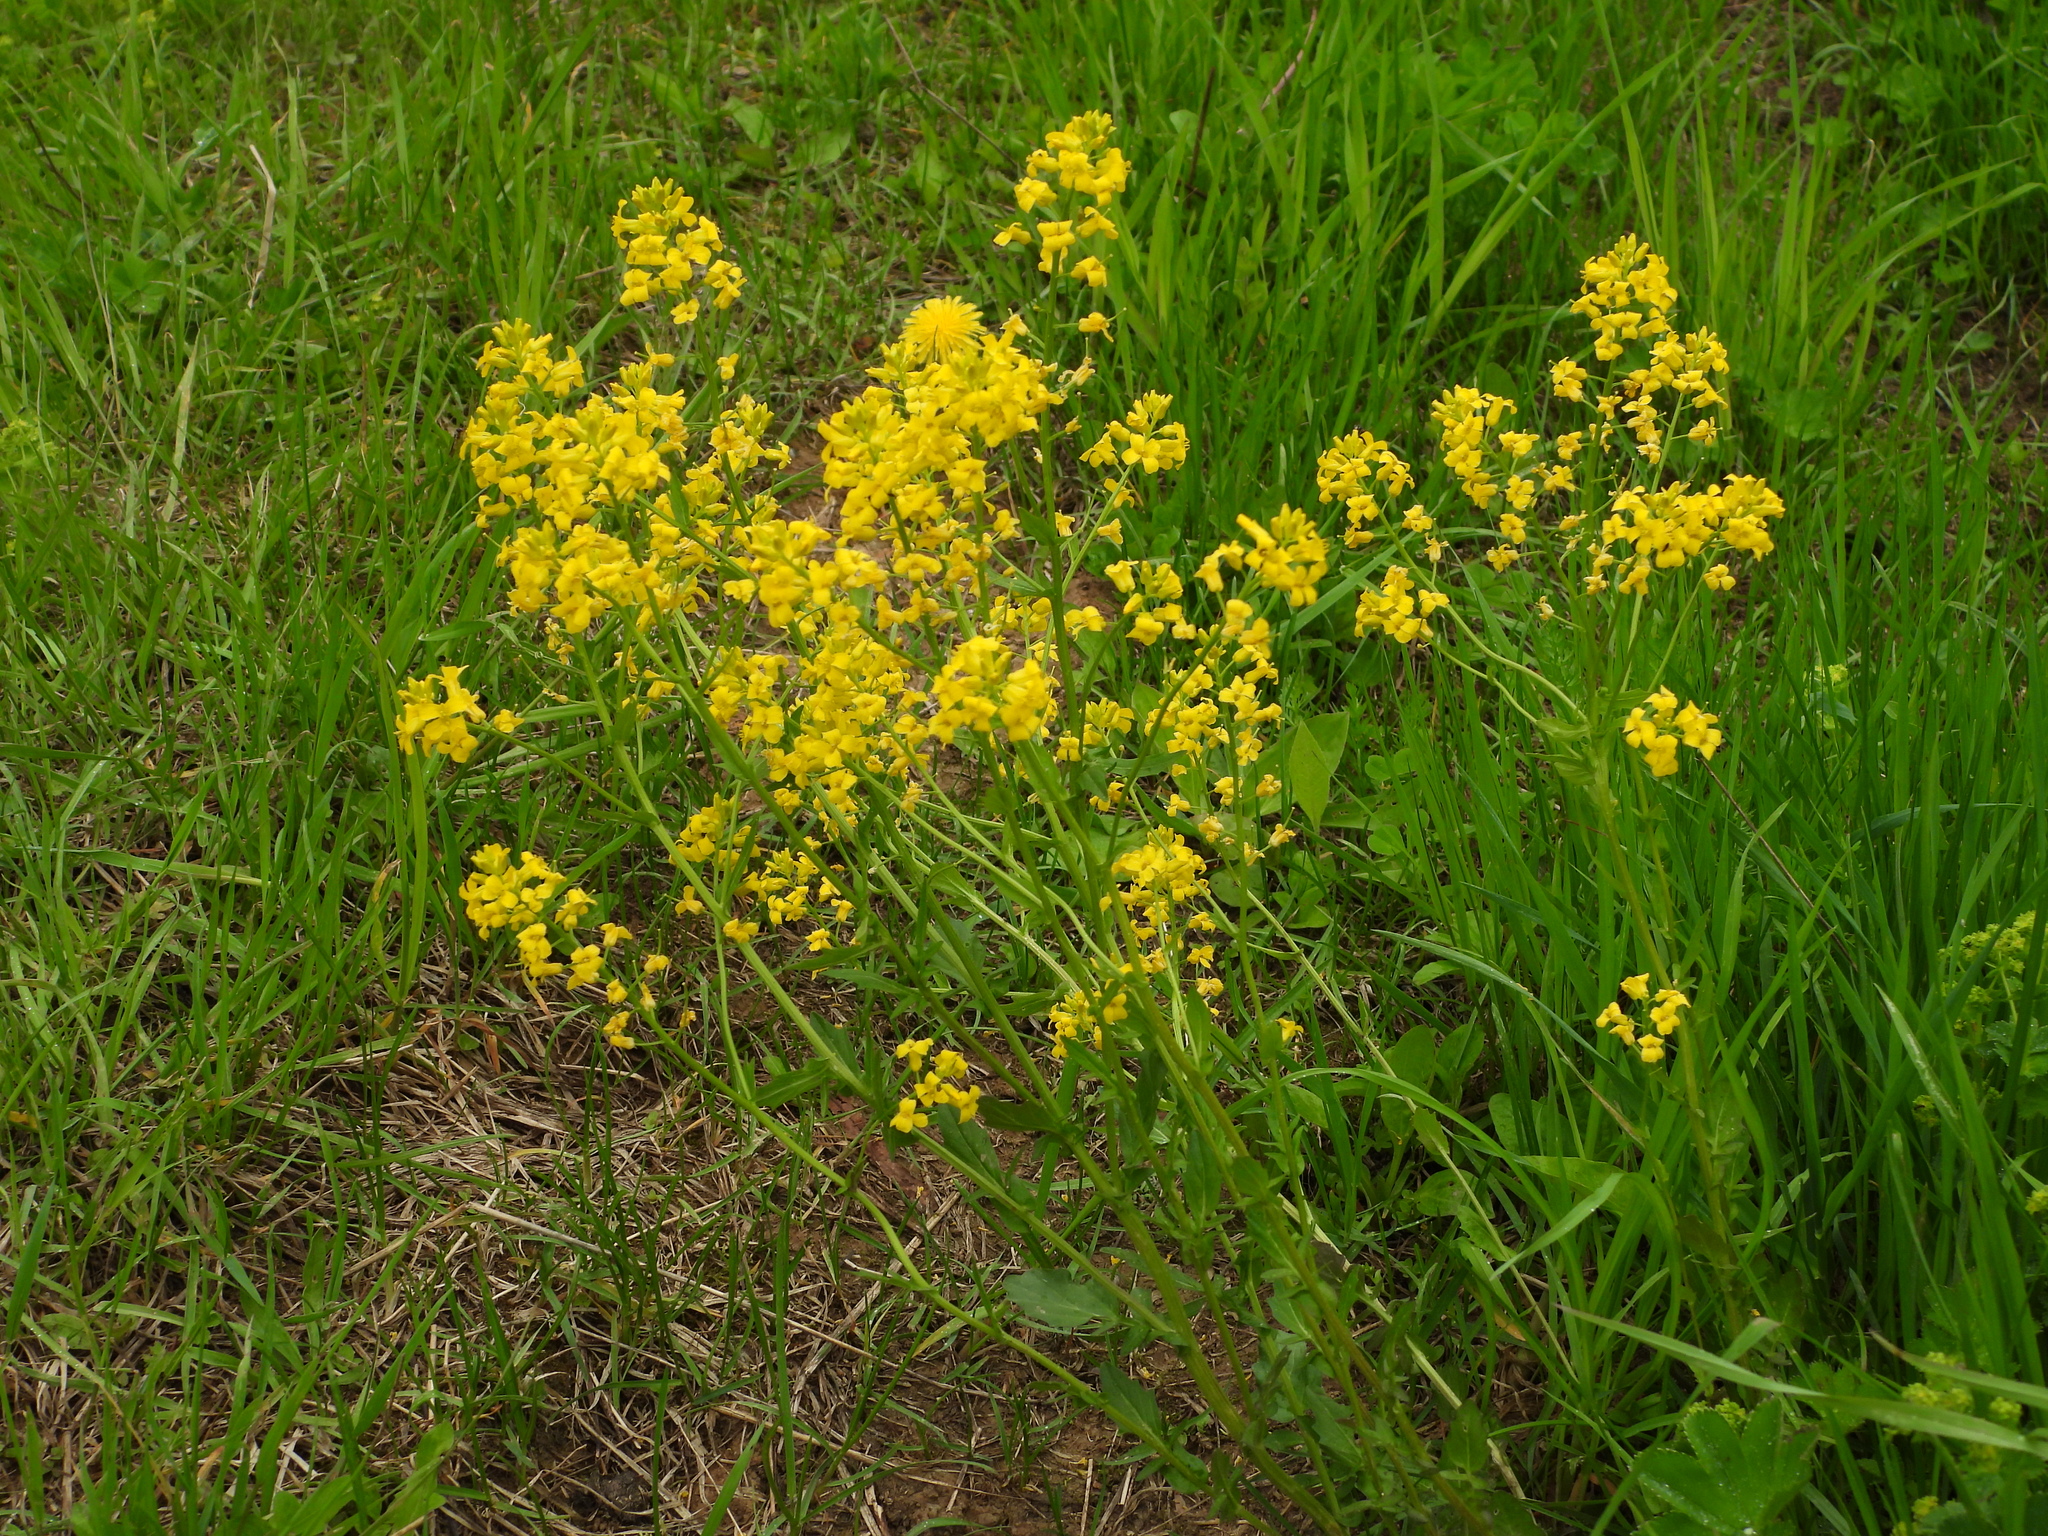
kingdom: Plantae
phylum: Tracheophyta
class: Magnoliopsida
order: Brassicales
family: Brassicaceae
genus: Barbarea
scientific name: Barbarea vulgaris
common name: Cressy-greens
